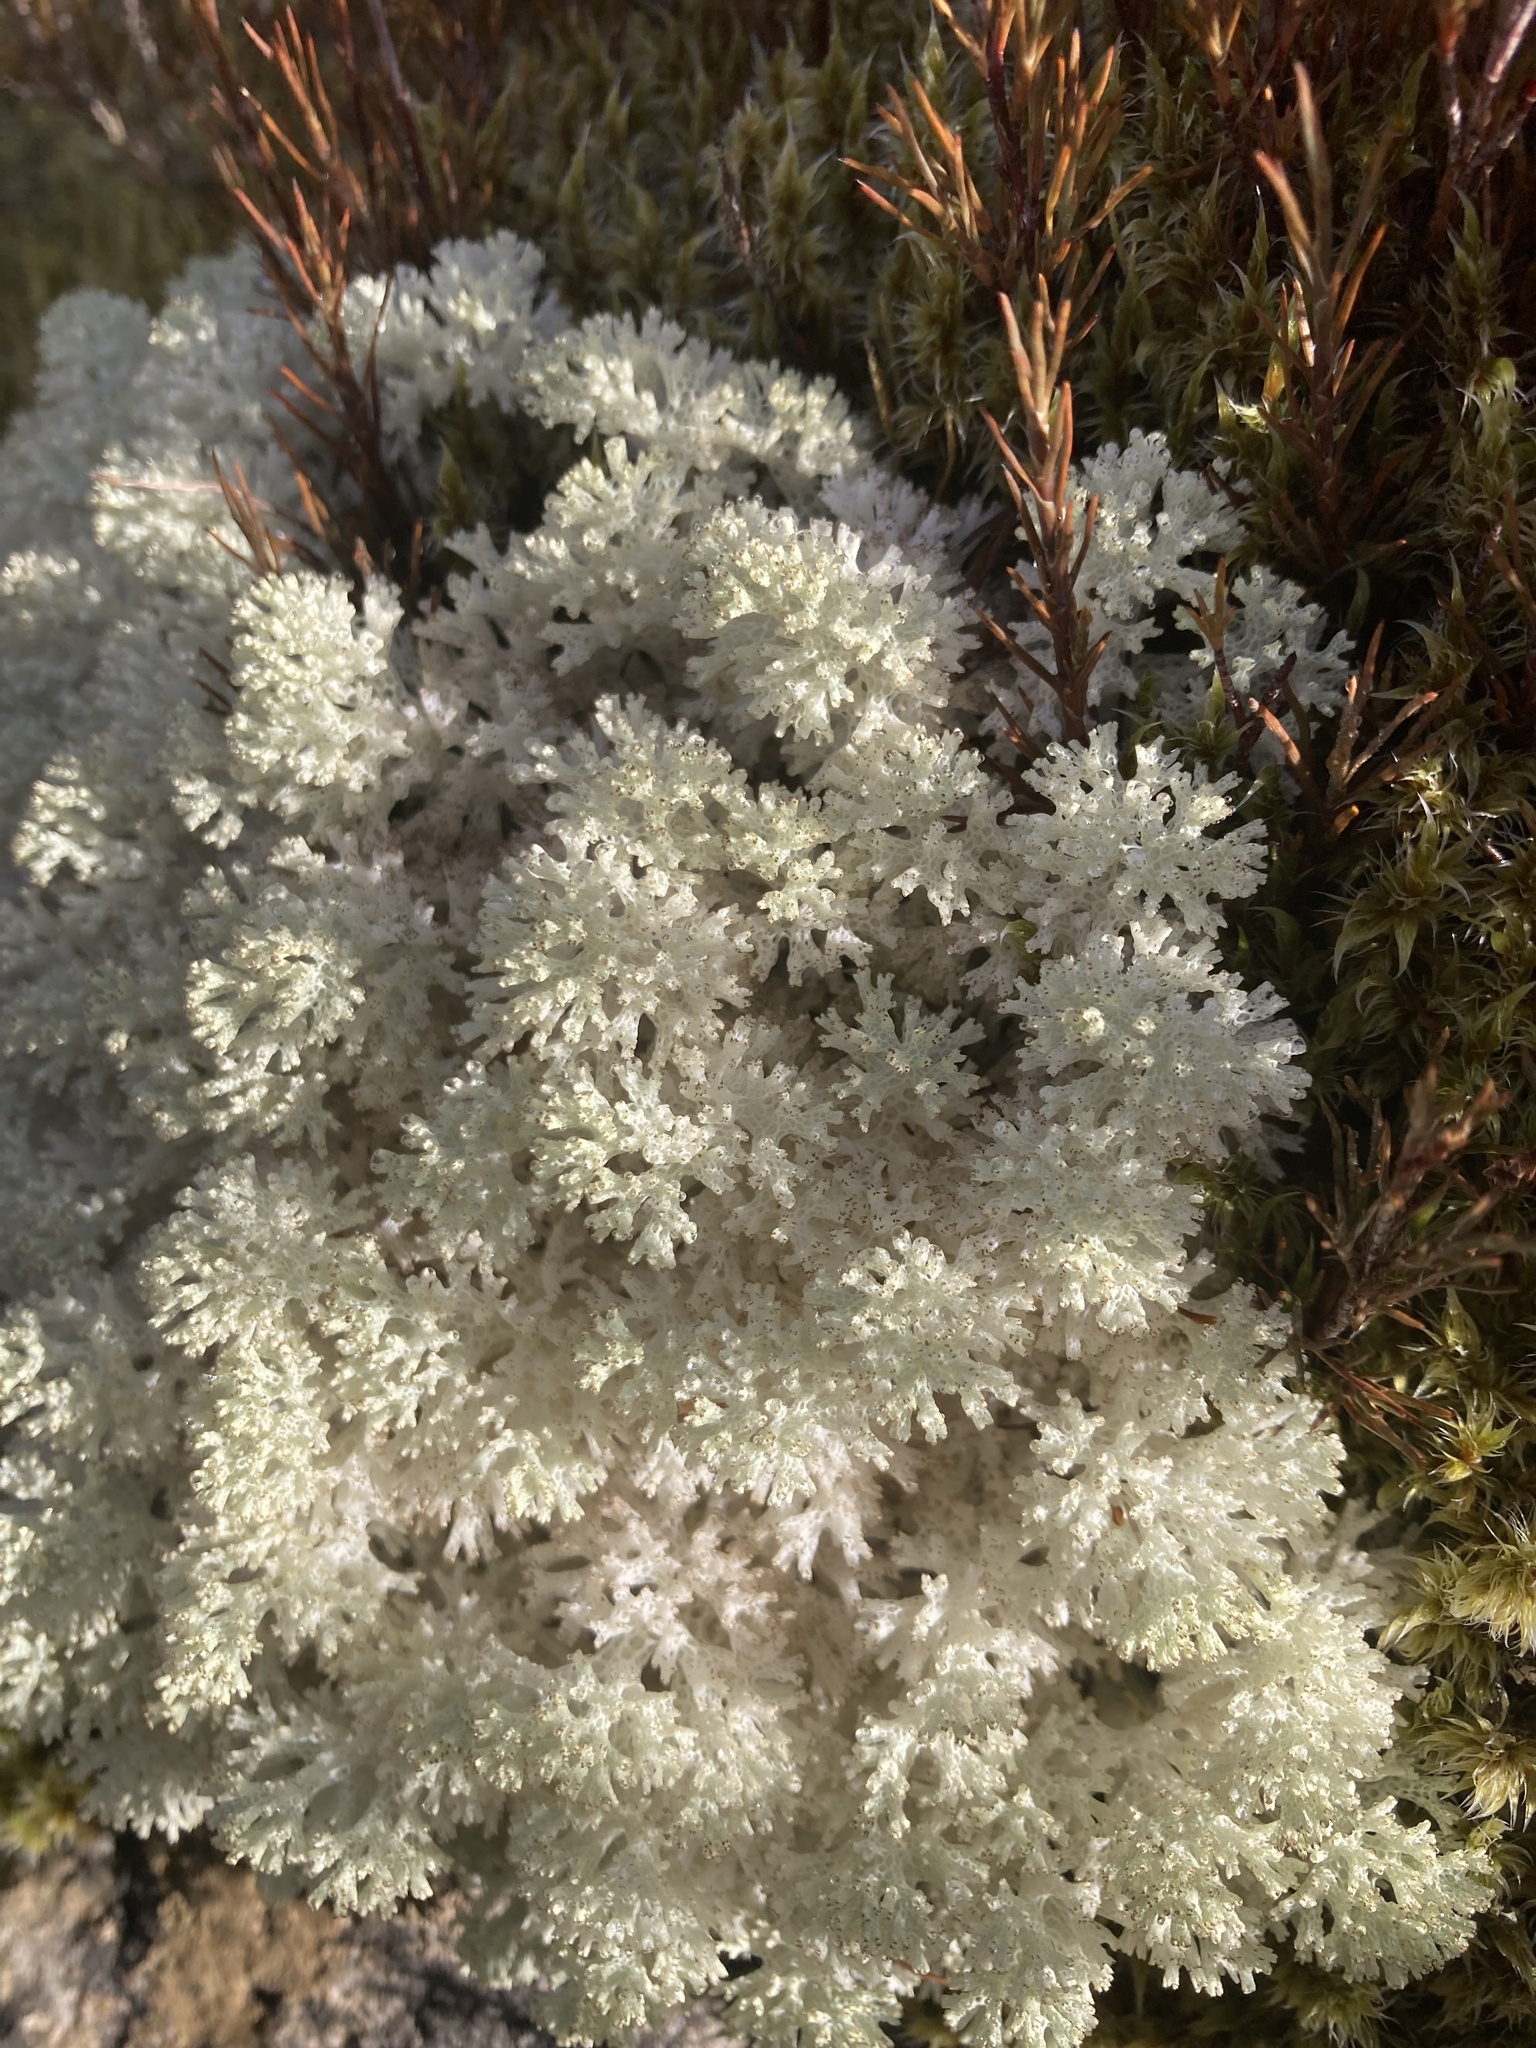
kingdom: Fungi
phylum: Ascomycota
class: Lecanoromycetes
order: Lecanorales
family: Cladoniaceae
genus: Pulchrocladia
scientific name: Pulchrocladia retipora
